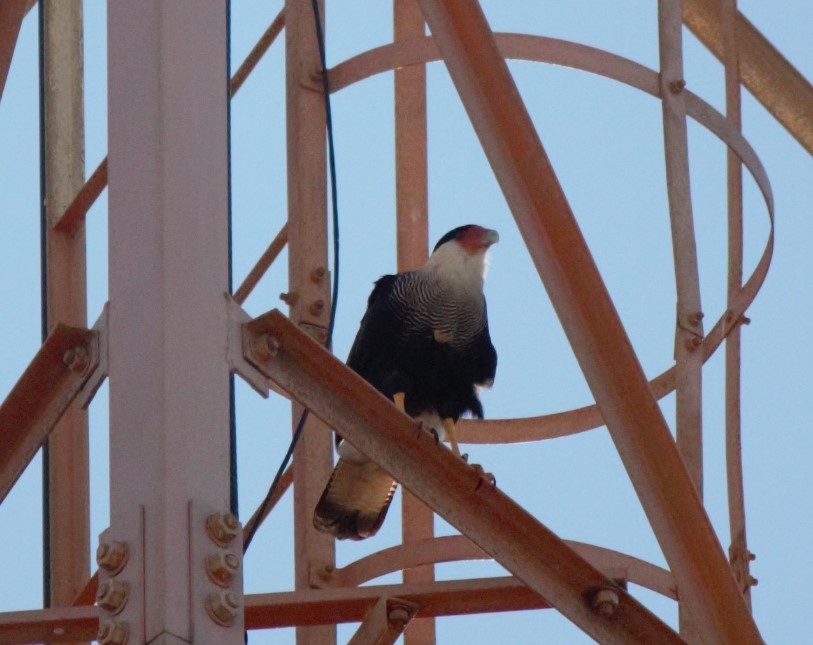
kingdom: Animalia
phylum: Chordata
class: Aves
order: Falconiformes
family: Falconidae
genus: Caracara
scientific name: Caracara plancus
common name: Southern caracara
